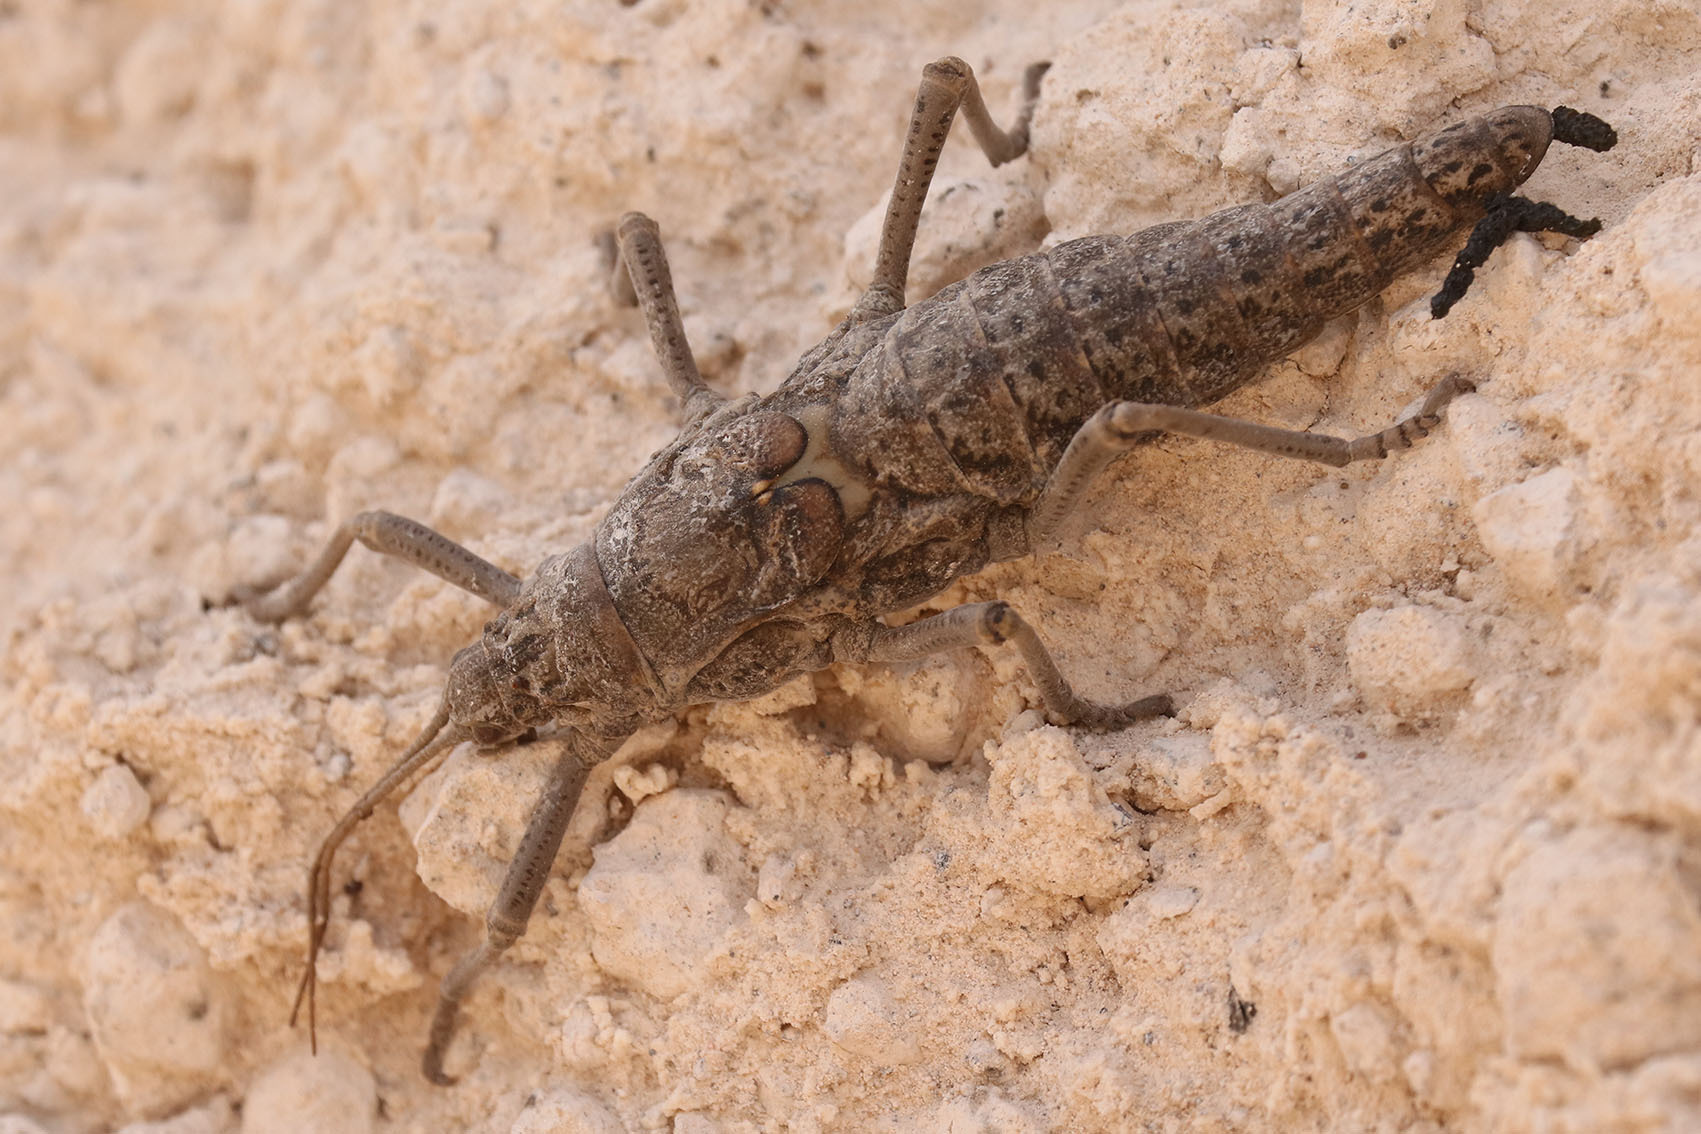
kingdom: Animalia
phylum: Arthropoda
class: Insecta
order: Phasmida
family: Agathemeridae
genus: Agathemera
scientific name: Agathemera luteola
